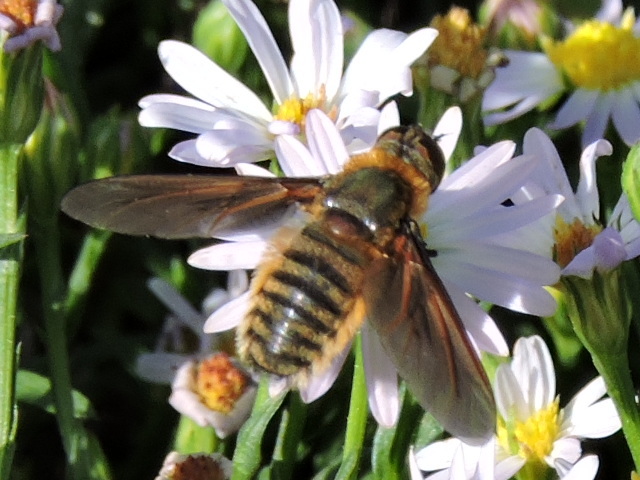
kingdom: Animalia
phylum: Arthropoda
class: Insecta
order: Diptera
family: Bombyliidae
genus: Poecilanthrax
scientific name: Poecilanthrax lucifer
